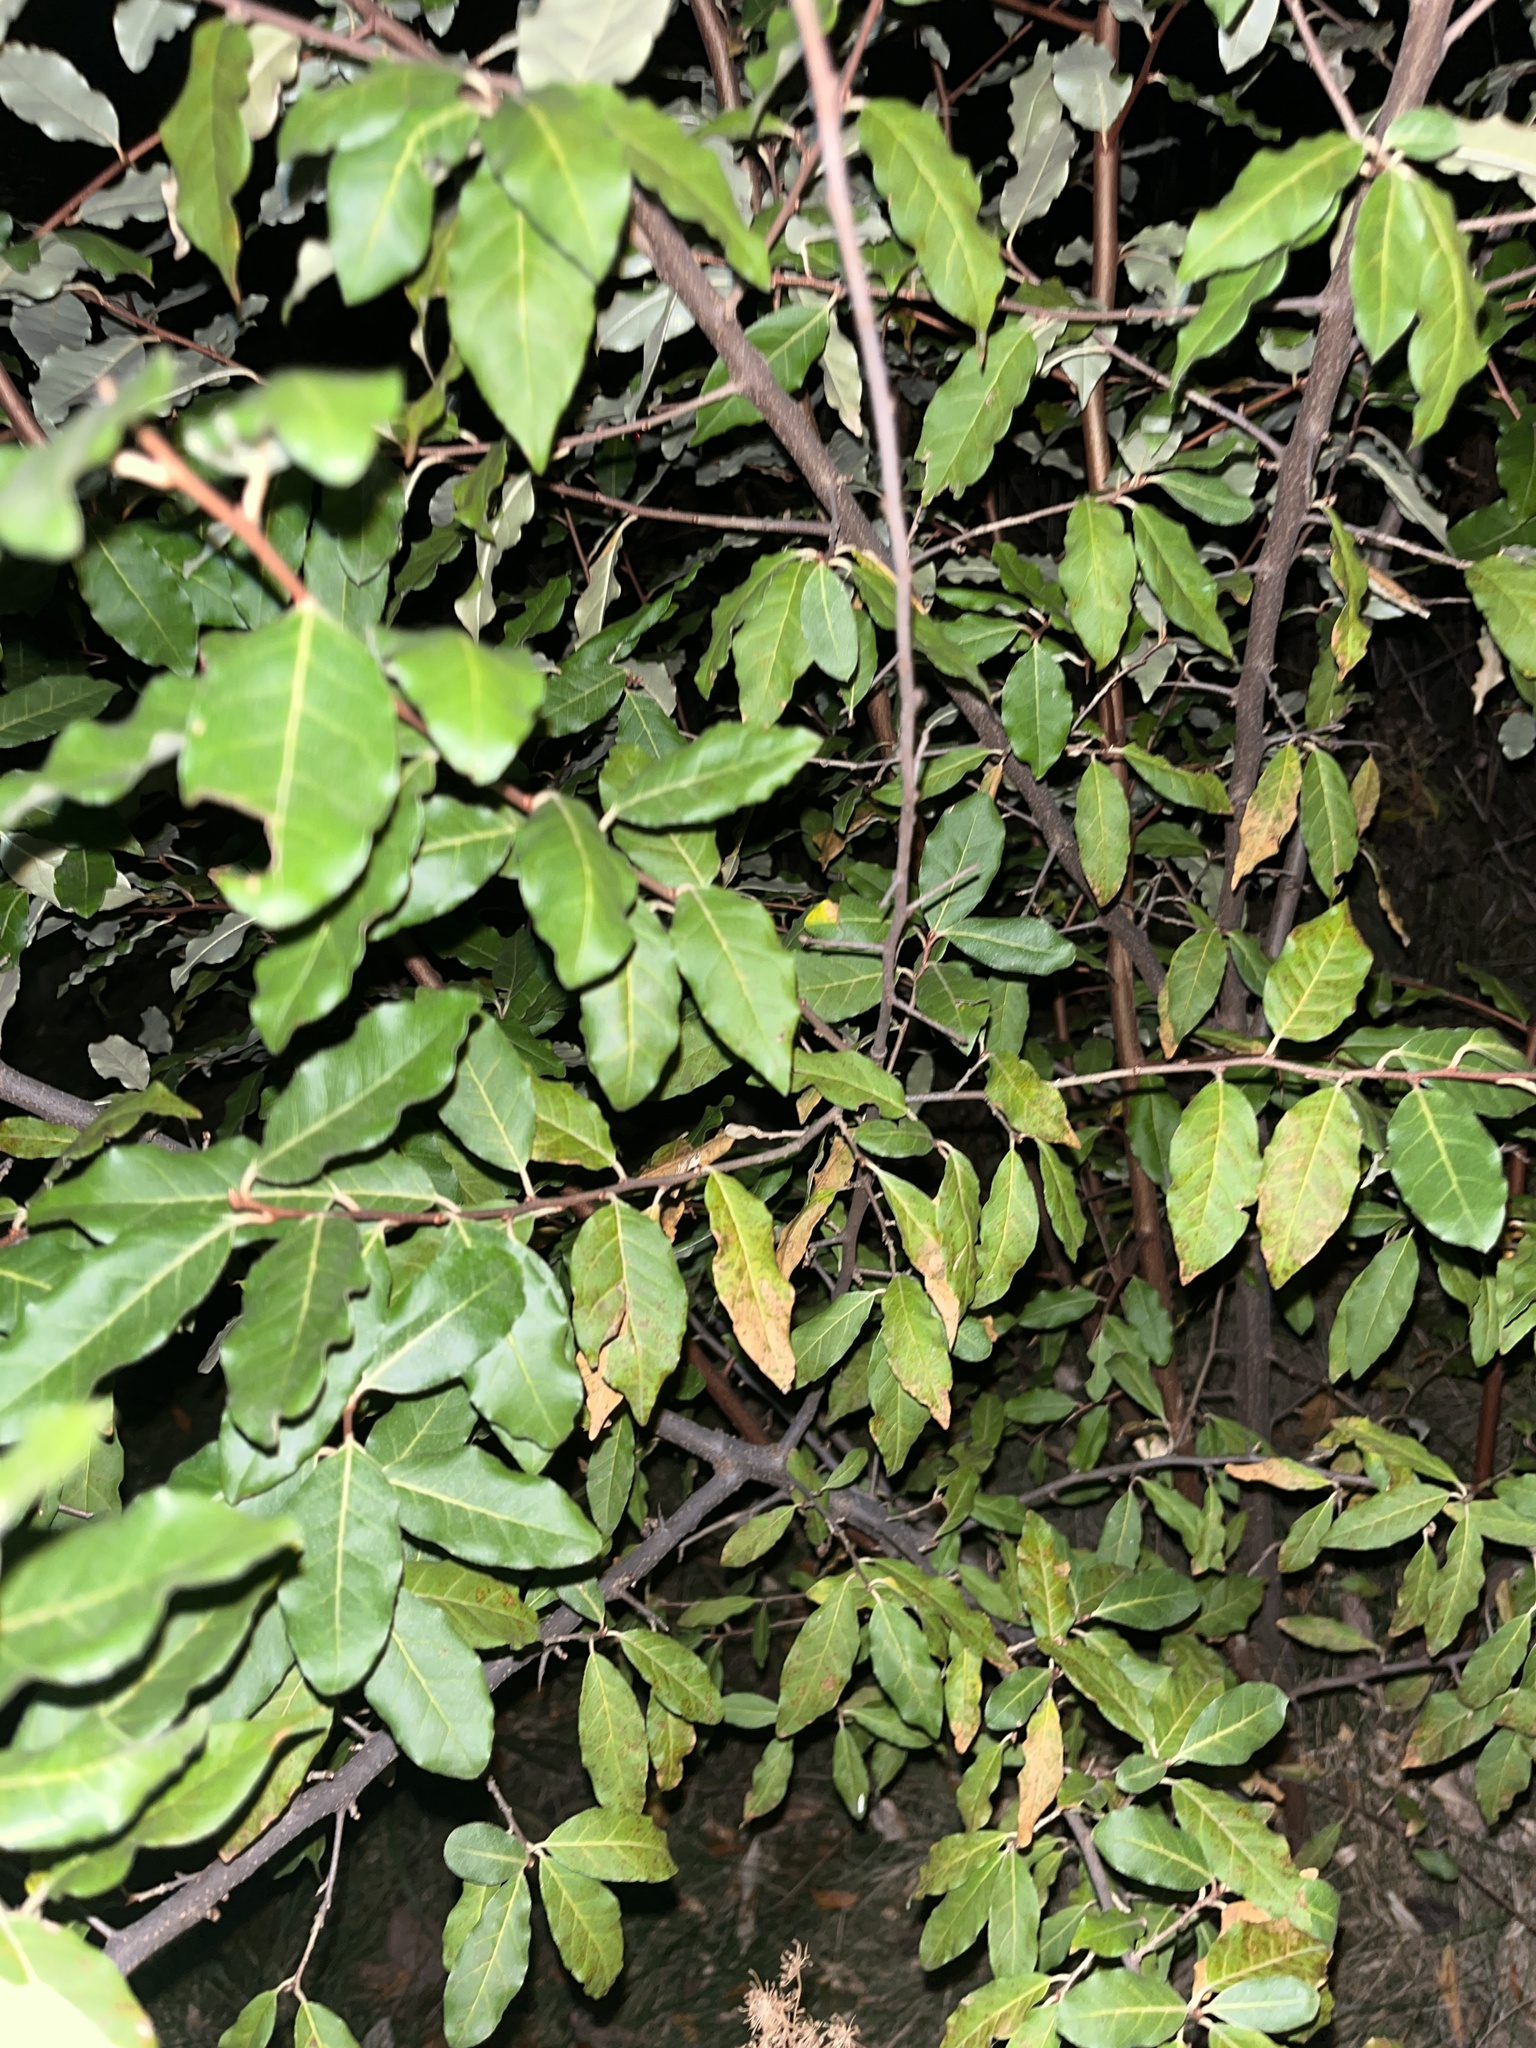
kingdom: Plantae
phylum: Tracheophyta
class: Magnoliopsida
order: Rosales
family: Elaeagnaceae
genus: Elaeagnus
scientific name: Elaeagnus umbellata
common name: Autumn olive
